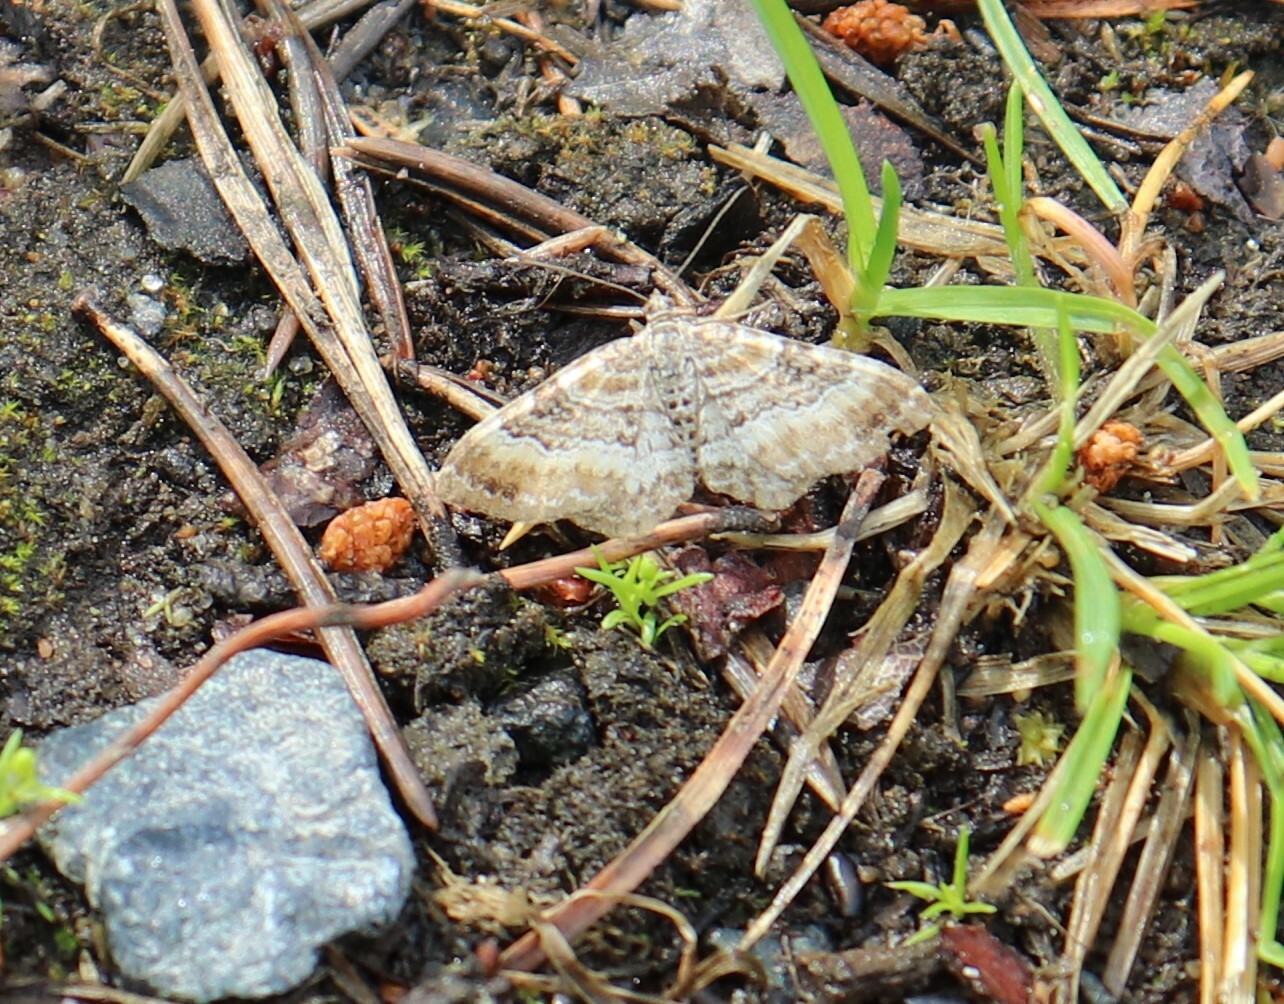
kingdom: Animalia
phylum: Arthropoda
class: Insecta
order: Lepidoptera
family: Geometridae
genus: Xanthorhoe
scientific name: Xanthorhoe spadicearia
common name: Red twin-spot carpet
